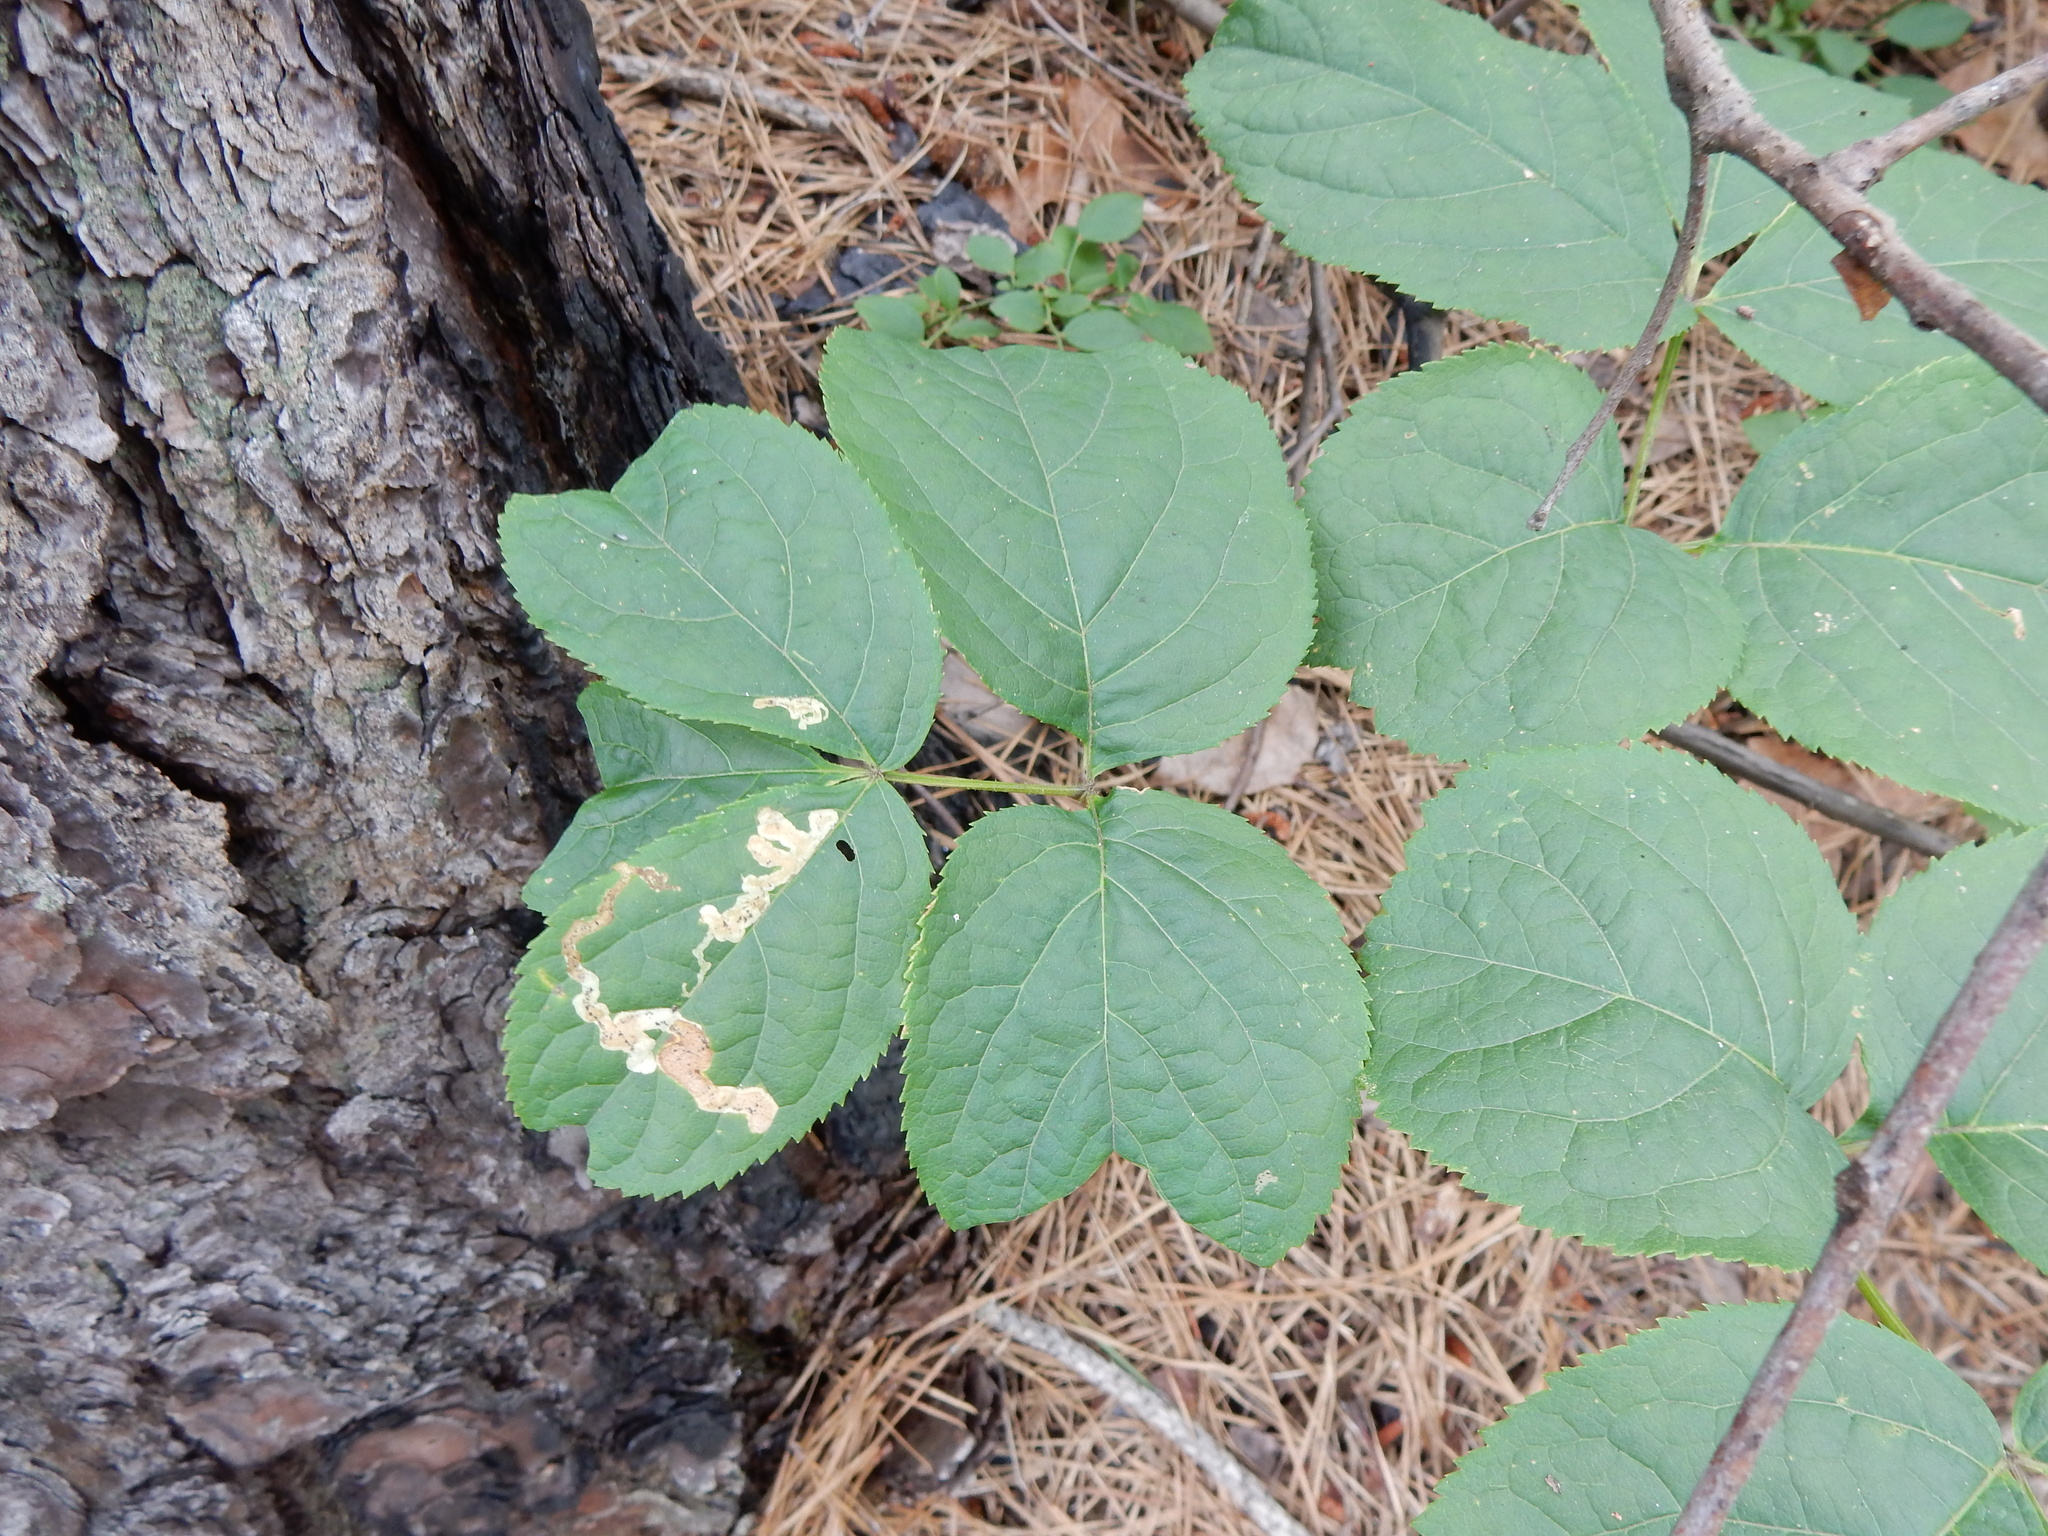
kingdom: Animalia
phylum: Arthropoda
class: Insecta
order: Diptera
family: Agromyzidae
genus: Phytomyza
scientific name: Phytomyza aralivora
